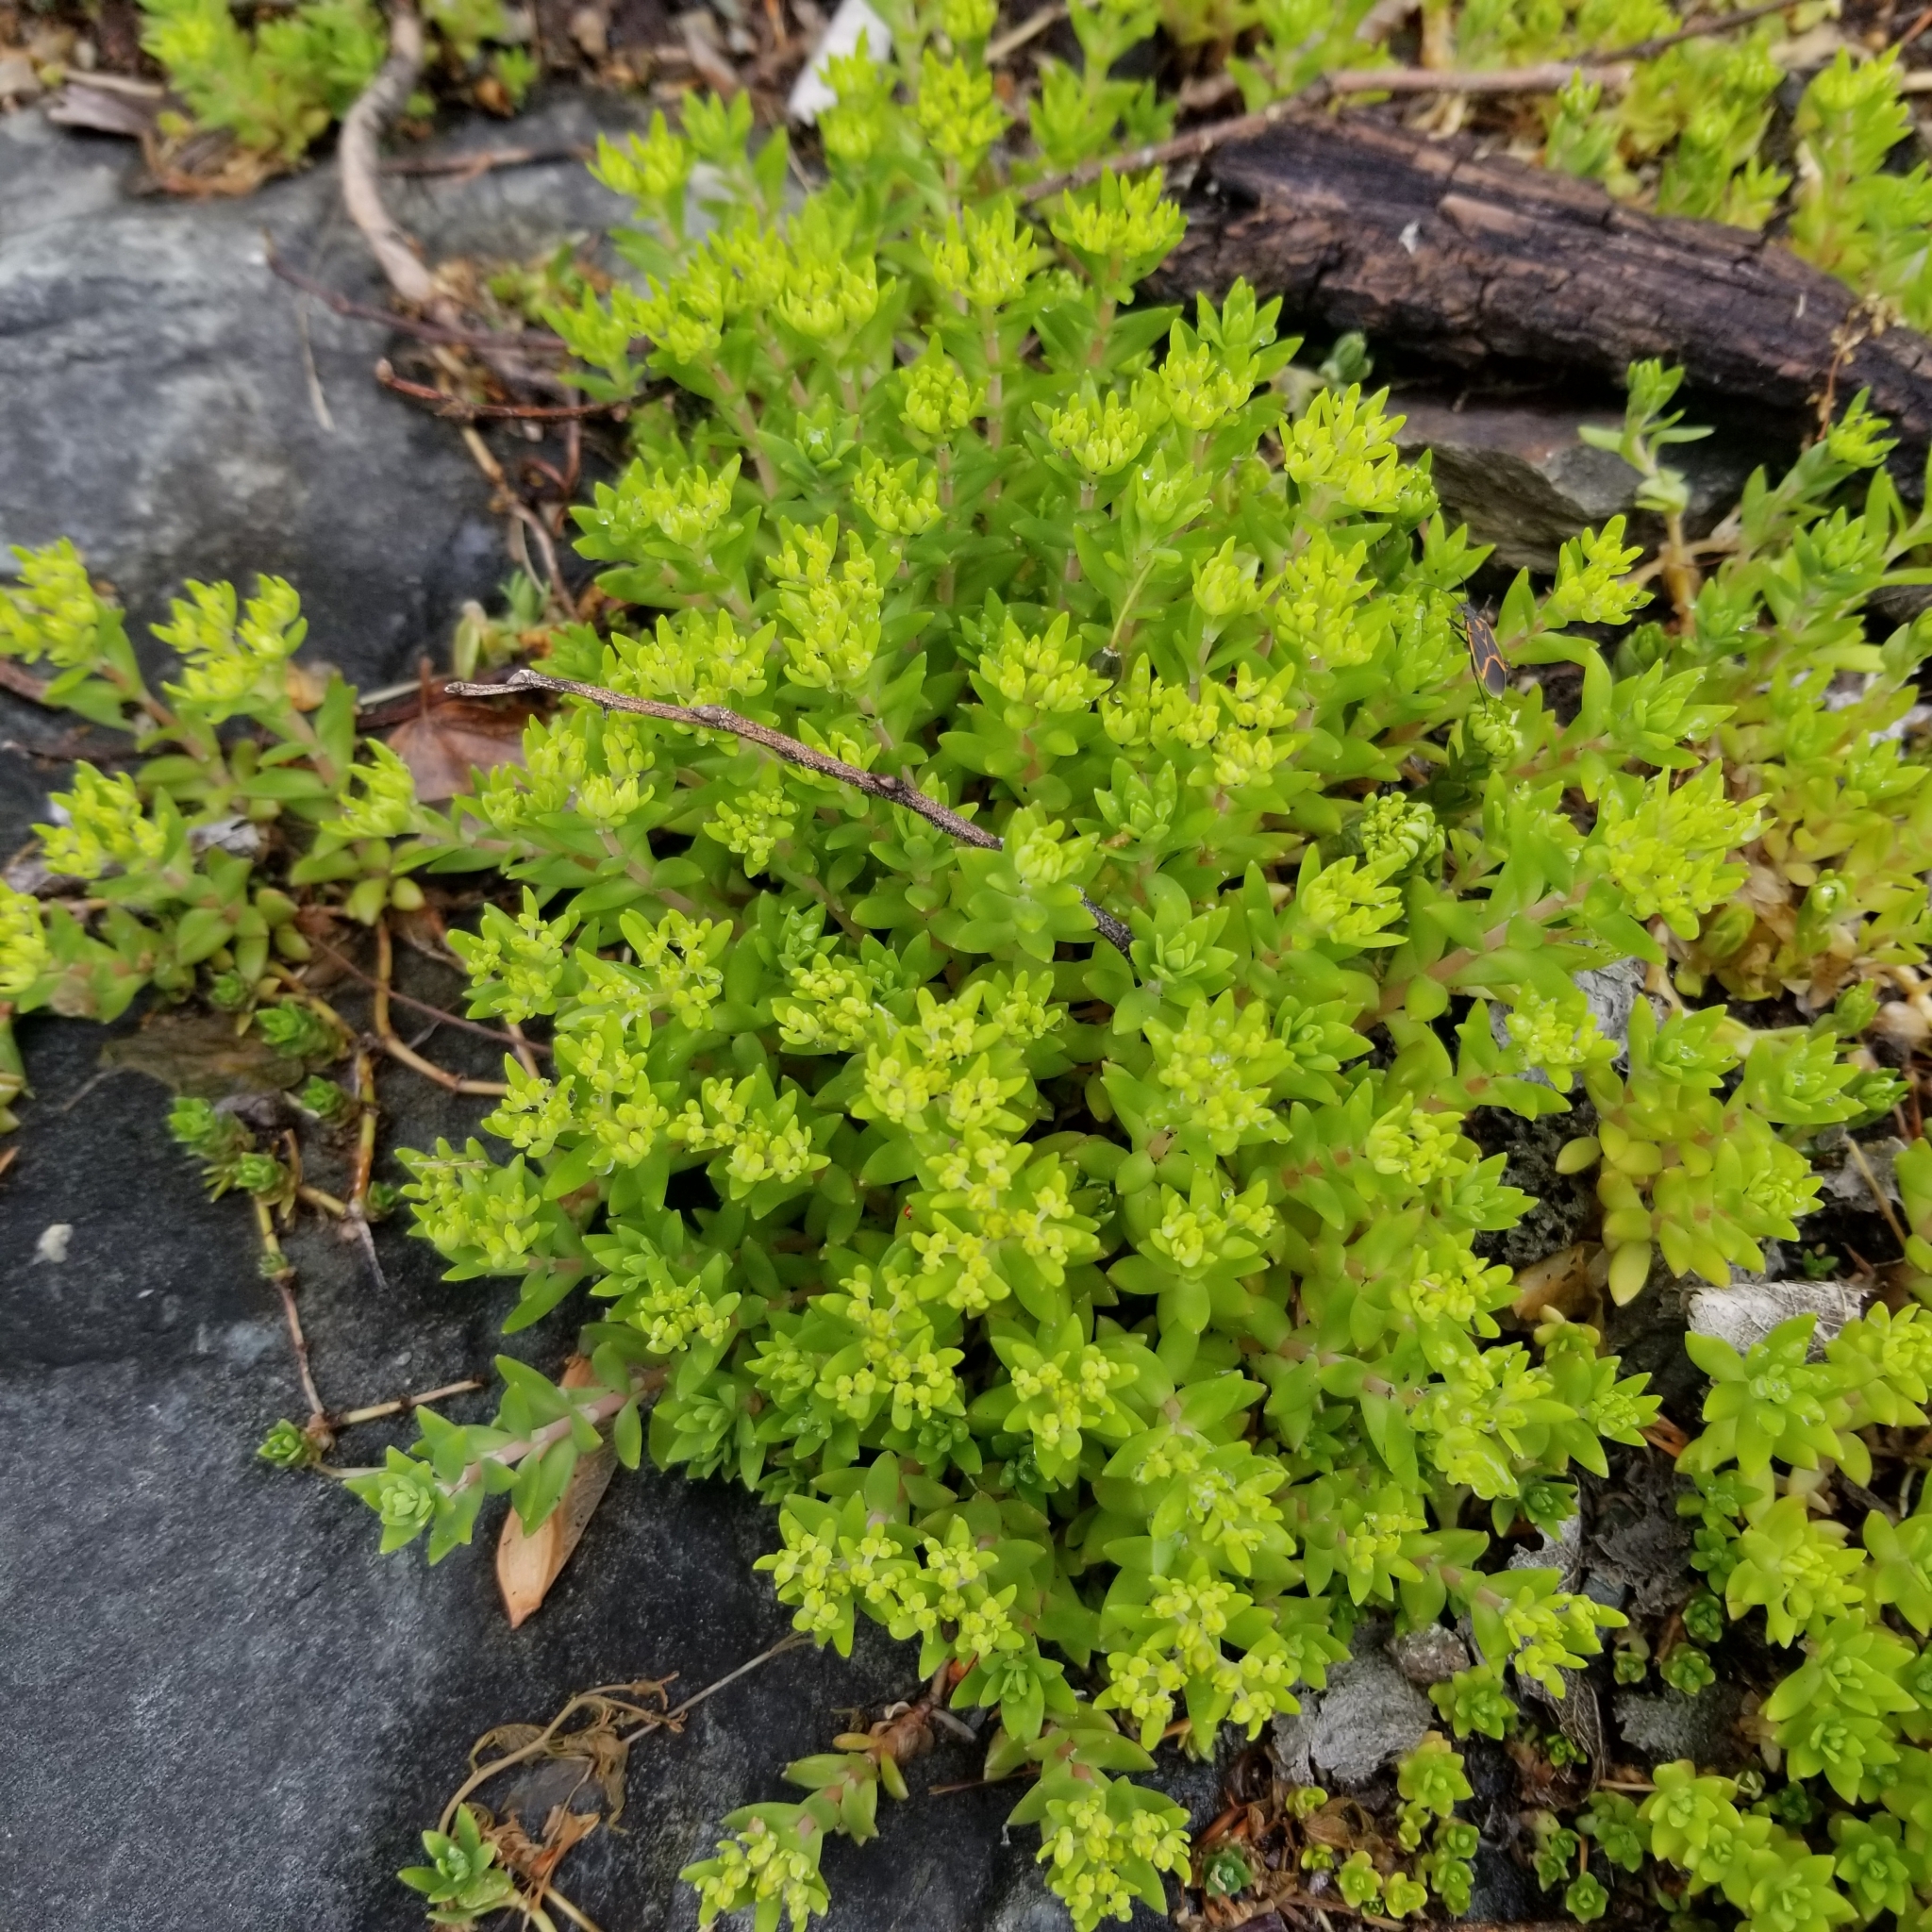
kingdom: Plantae
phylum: Tracheophyta
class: Magnoliopsida
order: Saxifragales
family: Crassulaceae
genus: Sedum
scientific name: Sedum sarmentosum
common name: Stringy stonecrop
